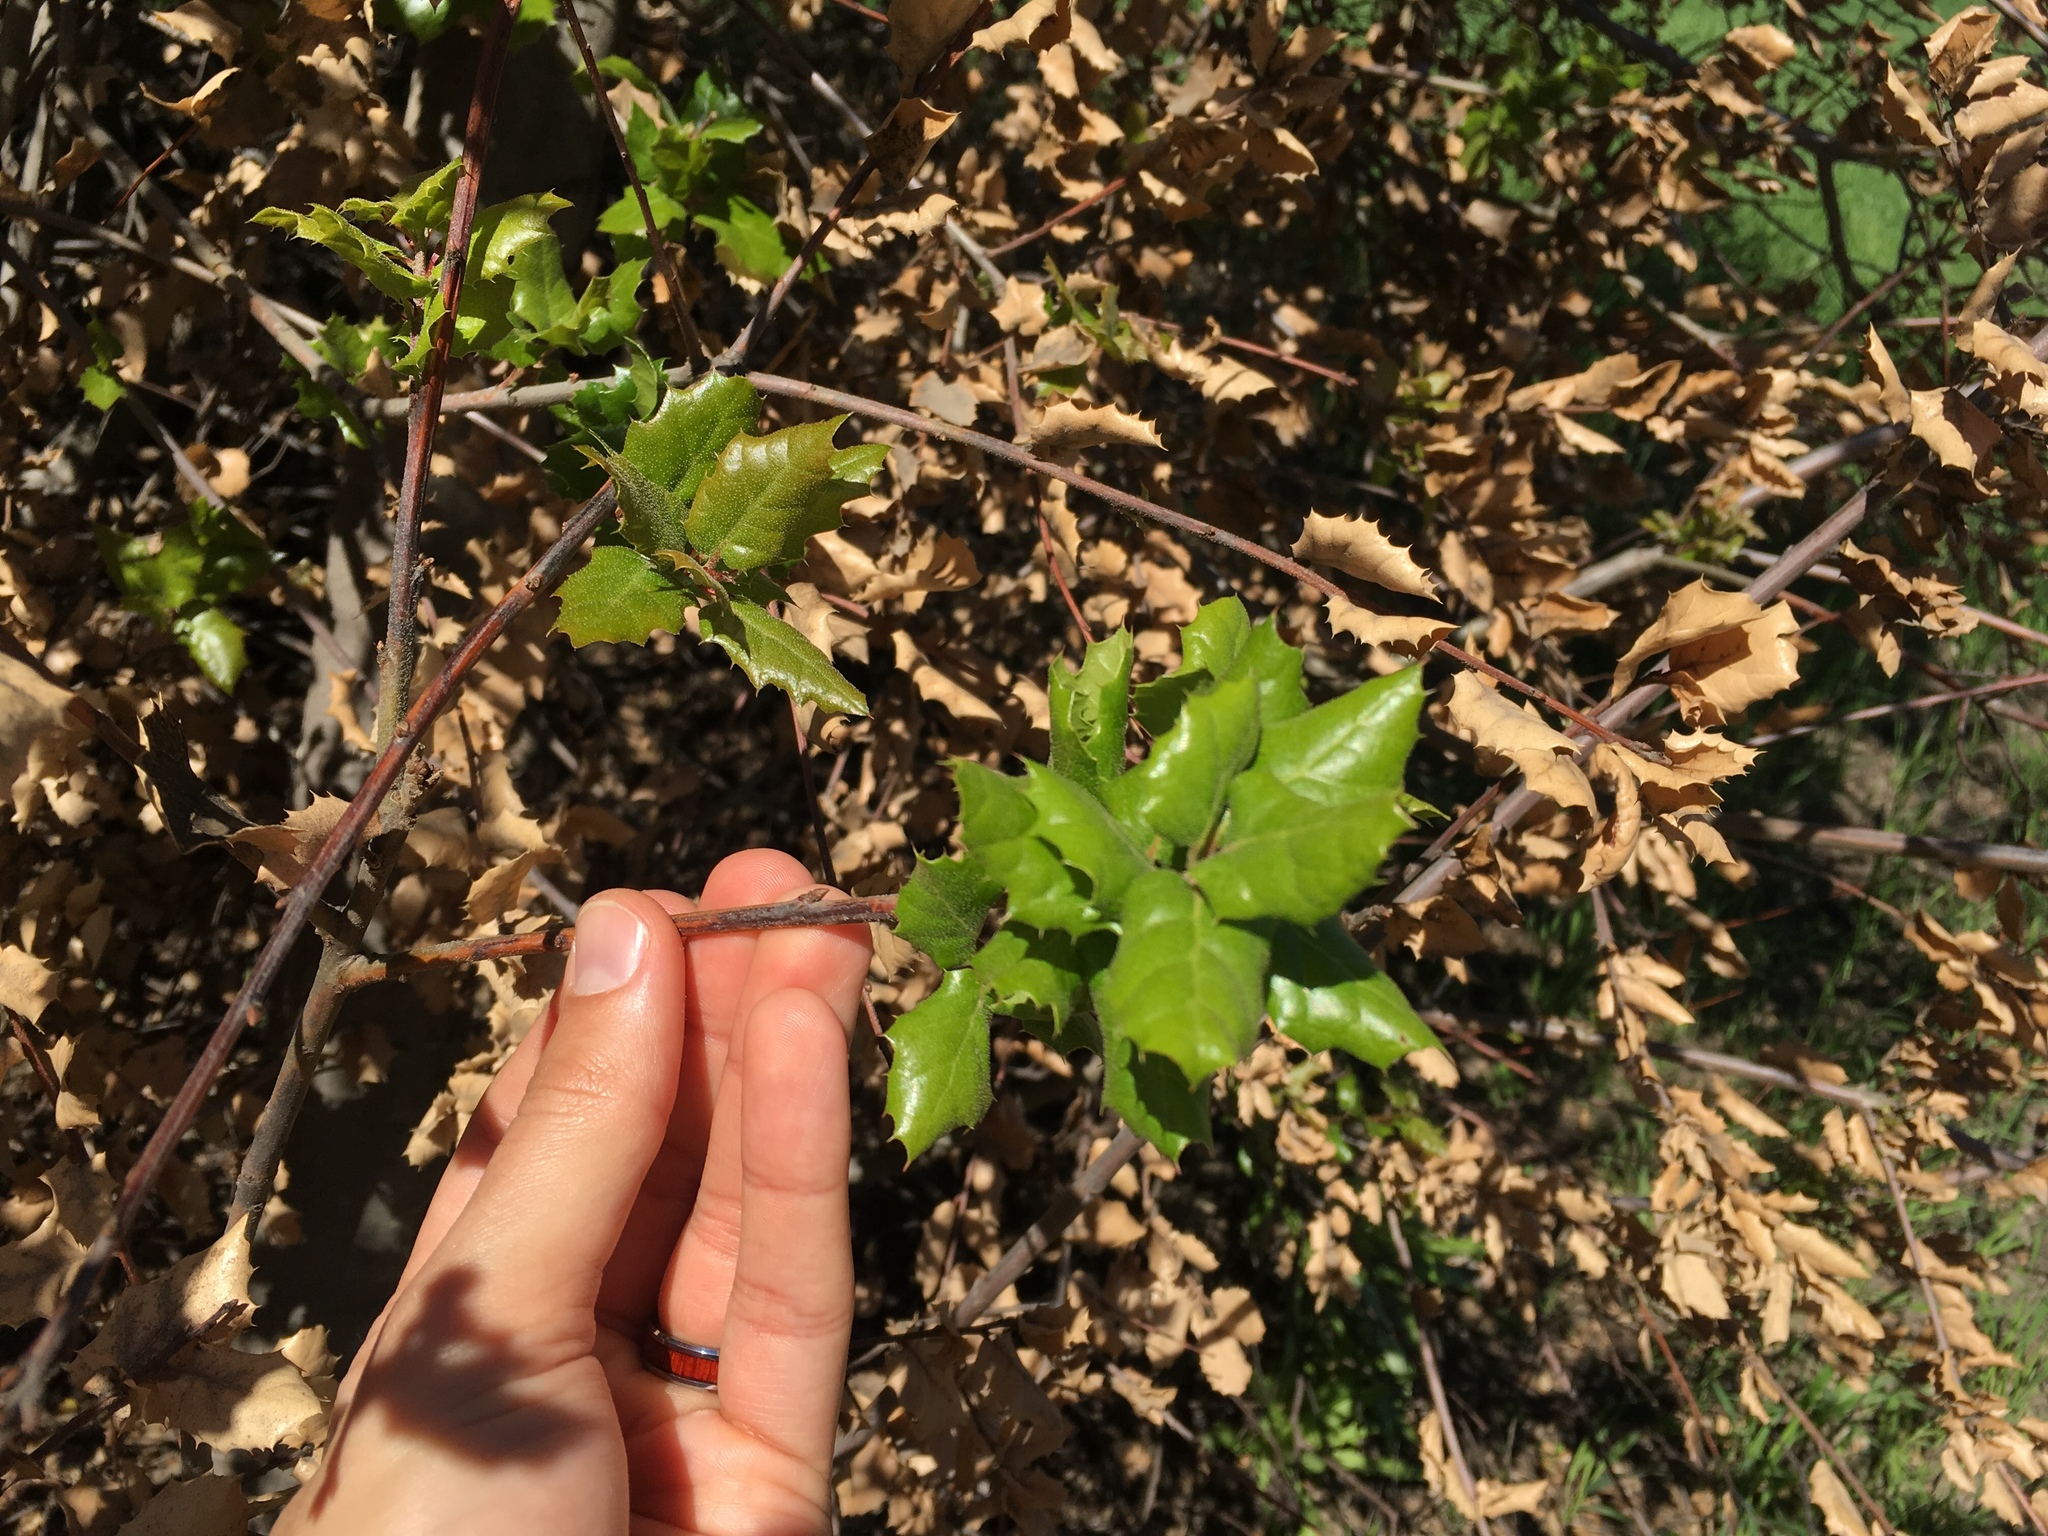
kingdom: Plantae
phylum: Tracheophyta
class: Magnoliopsida
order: Fagales
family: Fagaceae
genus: Quercus
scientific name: Quercus agrifolia
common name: California live oak
